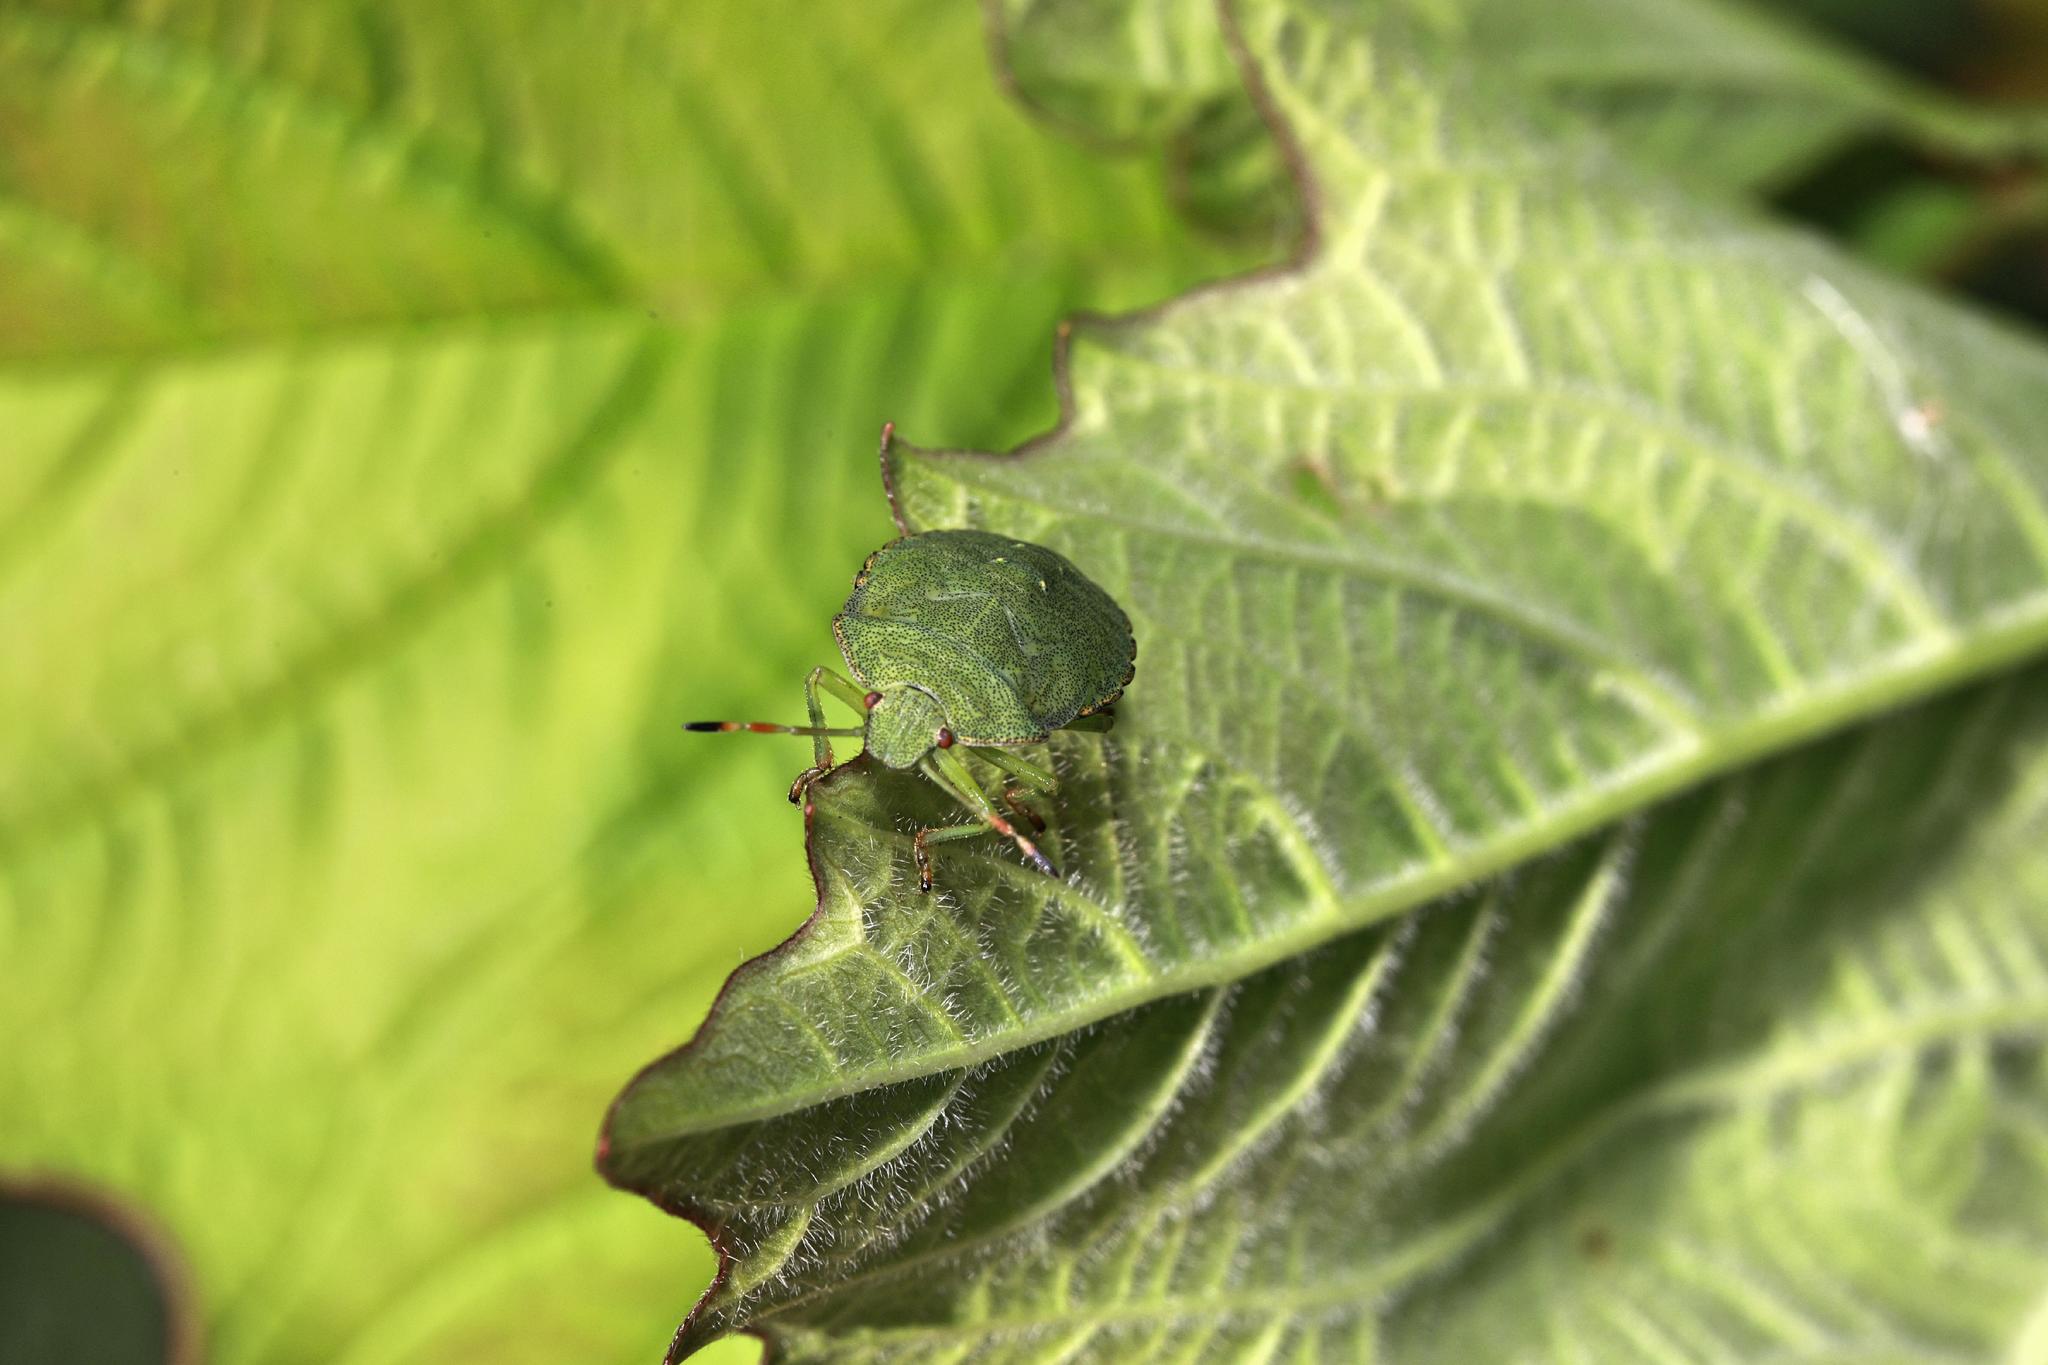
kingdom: Animalia
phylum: Arthropoda
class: Insecta
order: Hemiptera
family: Pentatomidae
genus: Palomena
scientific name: Palomena prasina
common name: Green shieldbug
